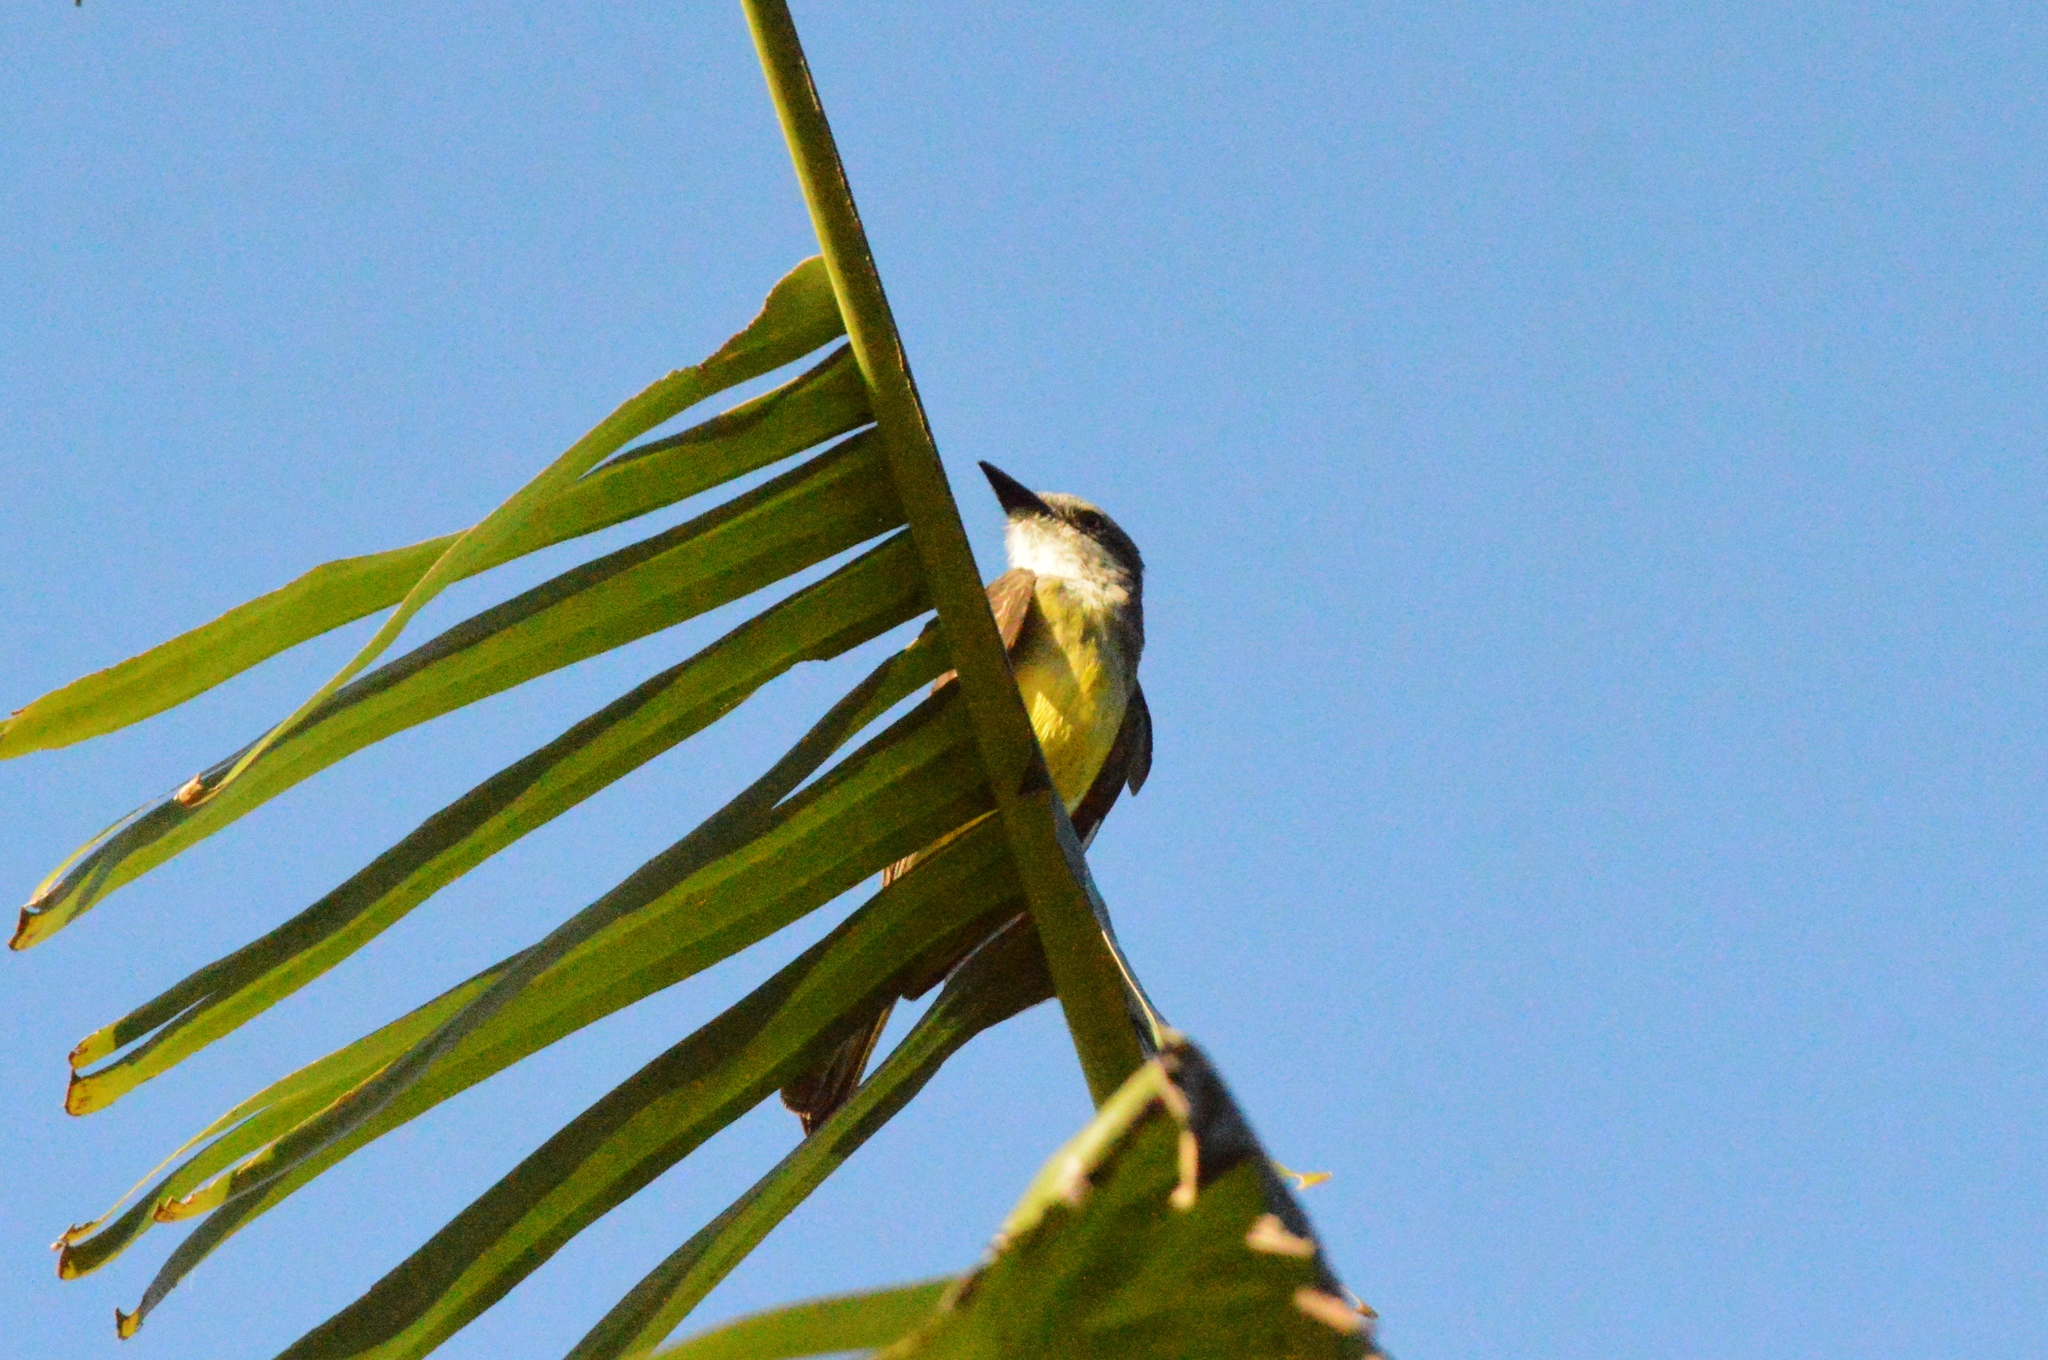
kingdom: Animalia
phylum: Chordata
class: Aves
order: Passeriformes
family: Tyrannidae
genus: Tyrannus
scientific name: Tyrannus melancholicus
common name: Tropical kingbird
